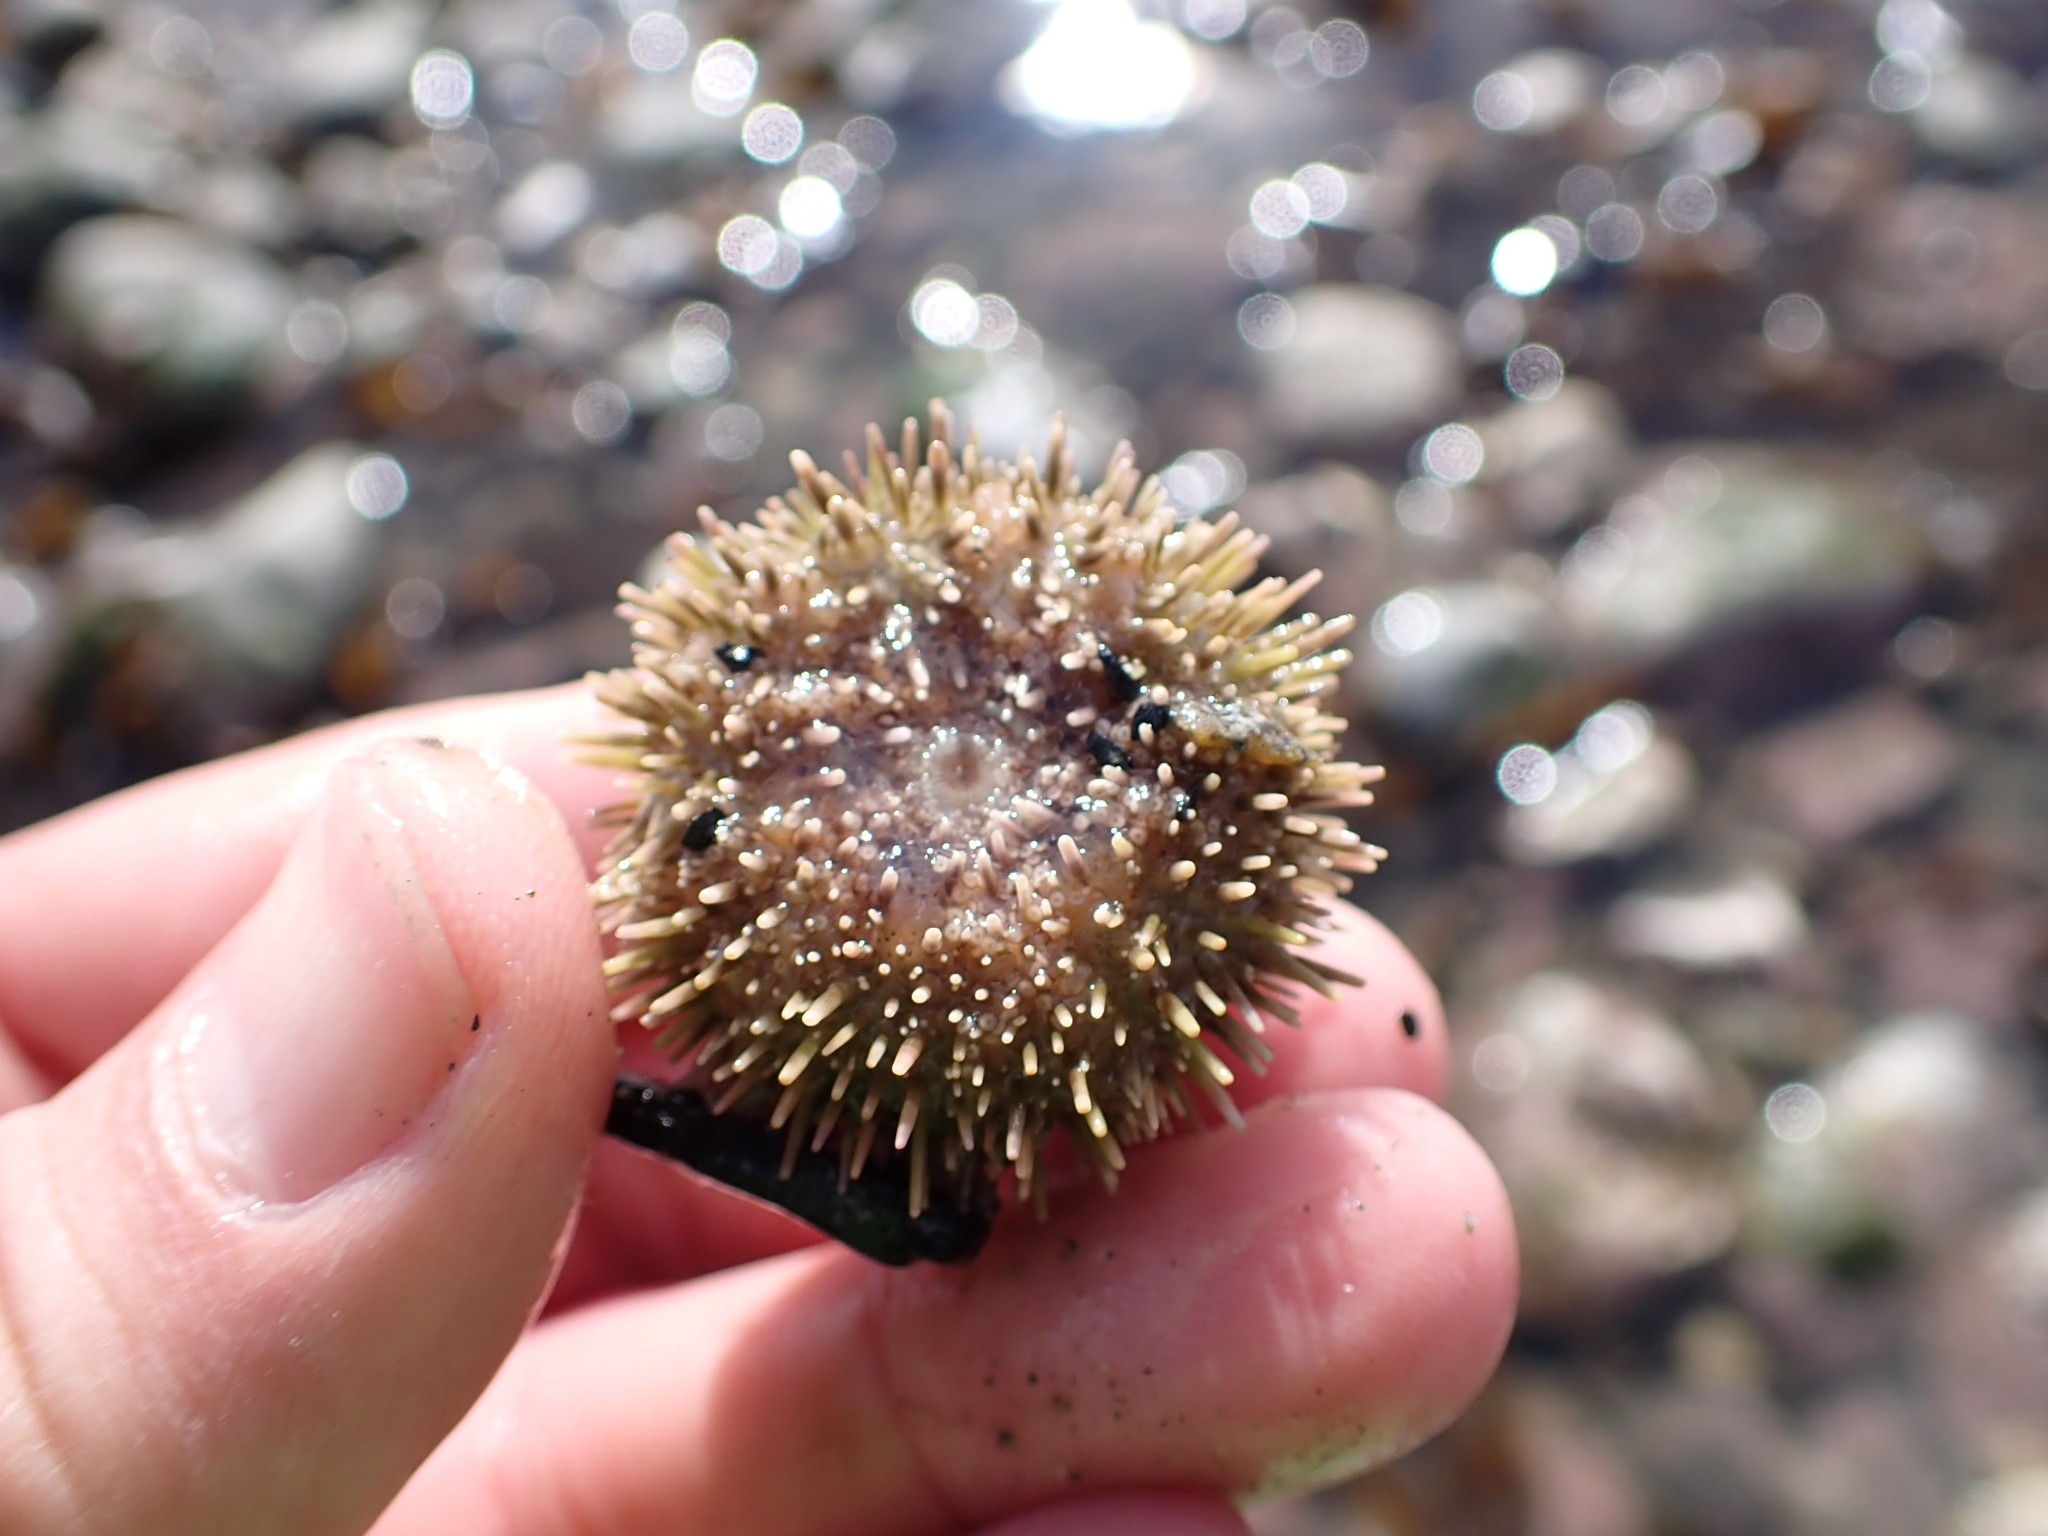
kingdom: Animalia
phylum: Echinodermata
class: Echinoidea
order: Camarodonta
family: Strongylocentrotidae
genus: Strongylocentrotus
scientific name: Strongylocentrotus droebachiensis
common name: Northern sea urchin
